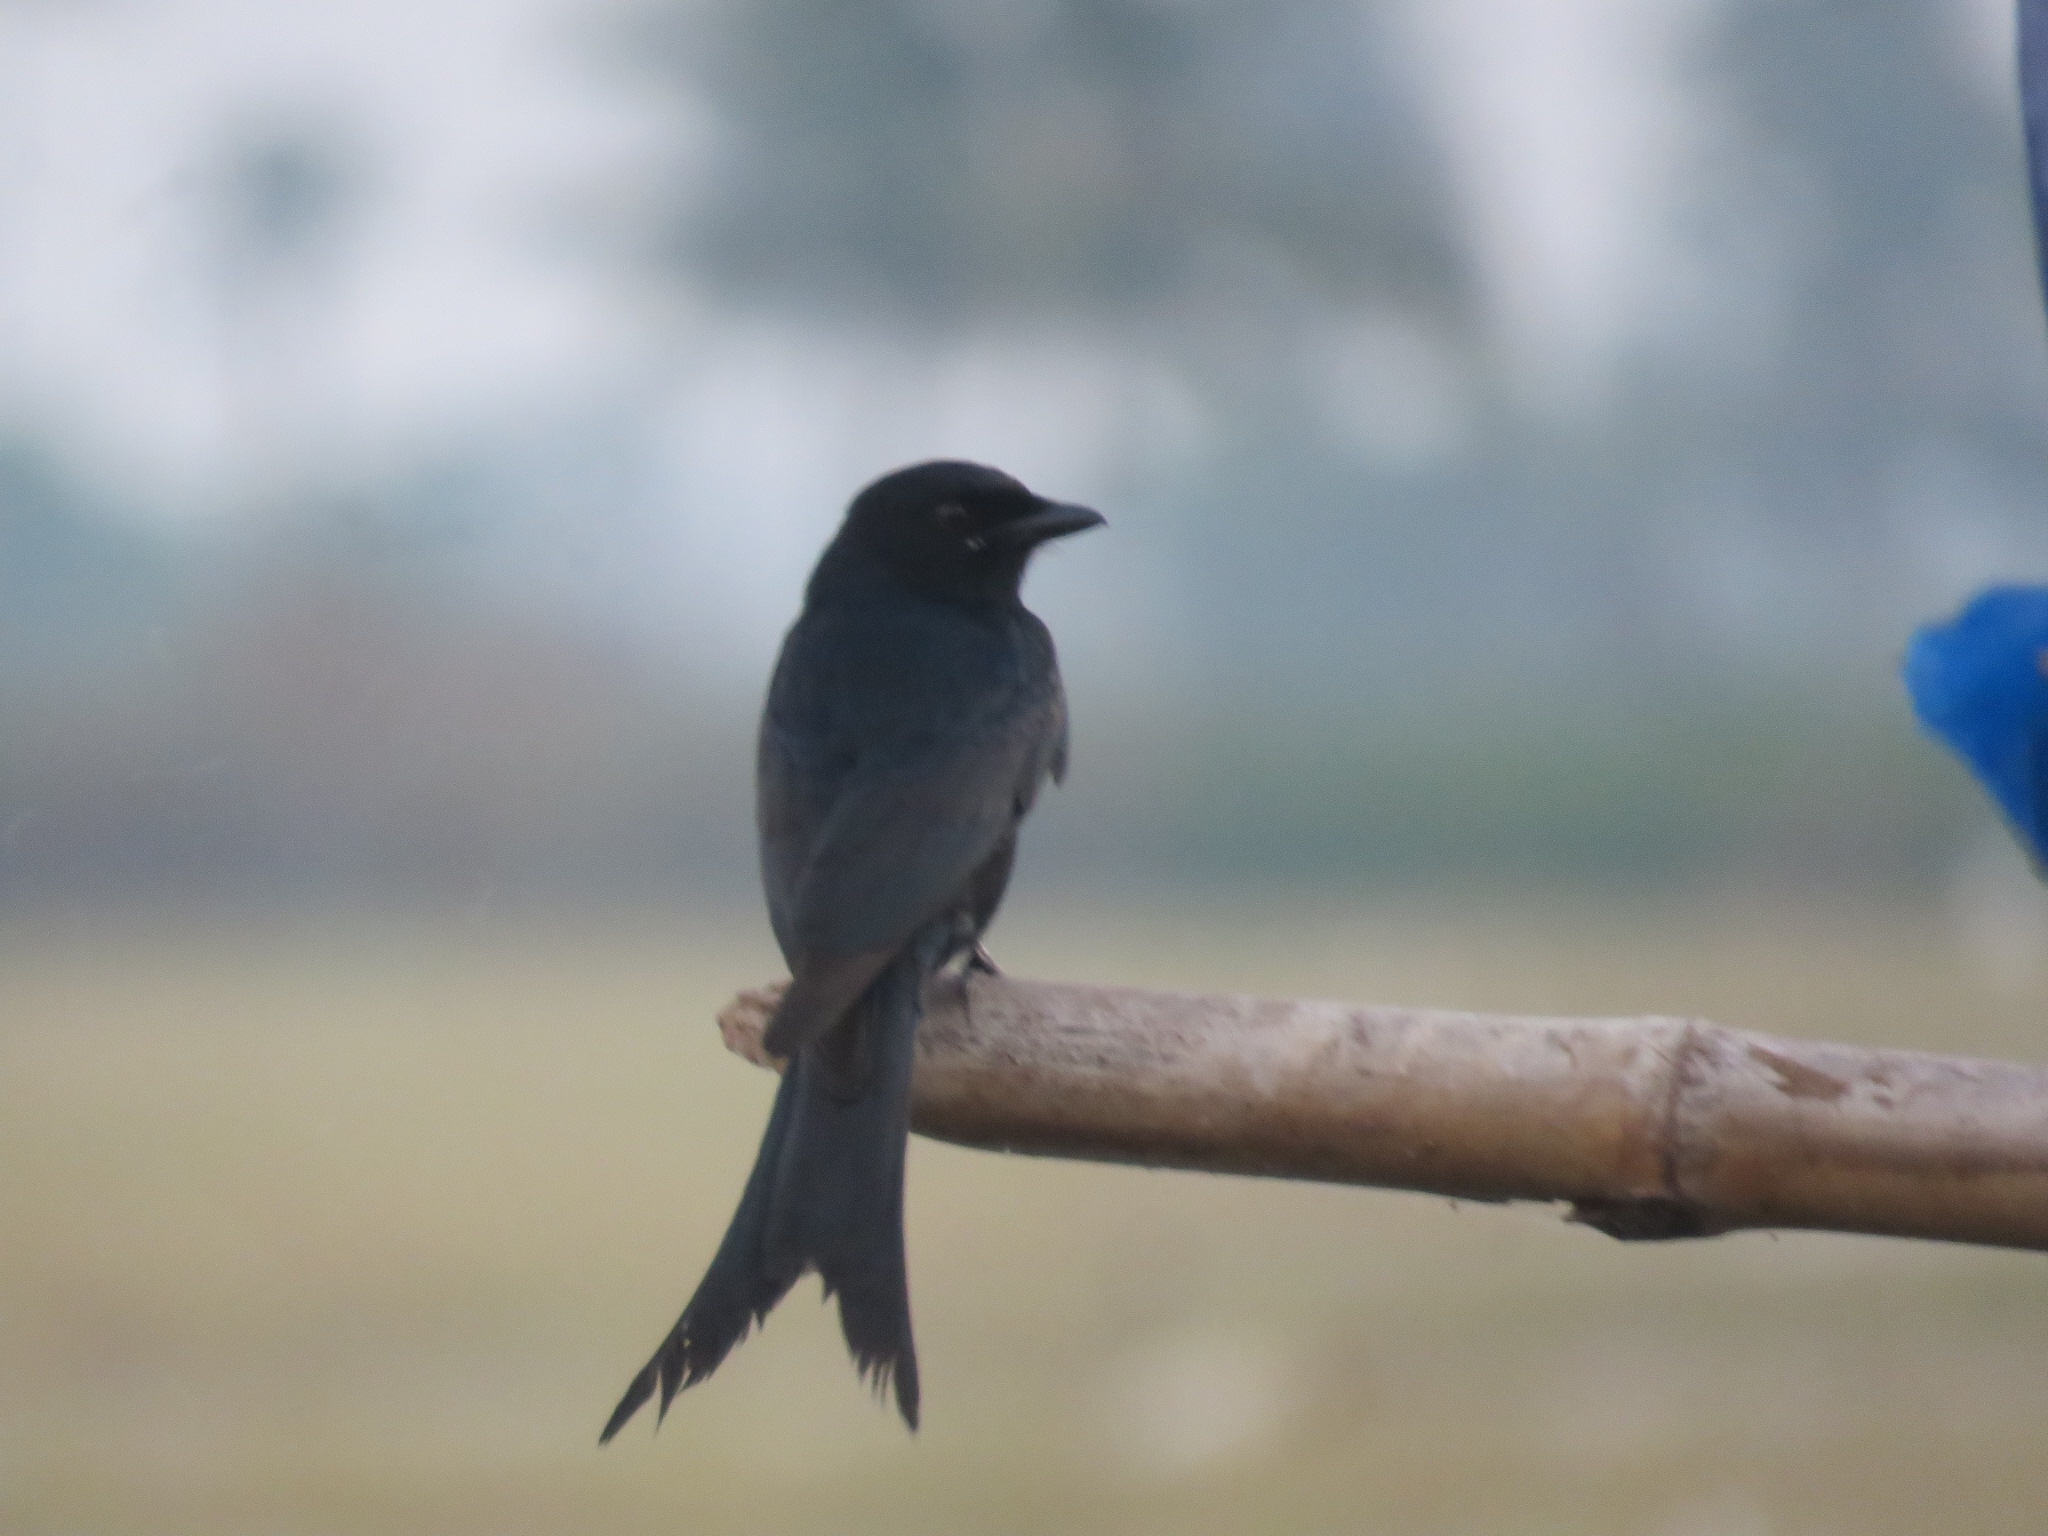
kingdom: Animalia
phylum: Chordata
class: Aves
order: Passeriformes
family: Dicruridae
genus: Dicrurus
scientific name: Dicrurus macrocercus
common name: Black drongo
